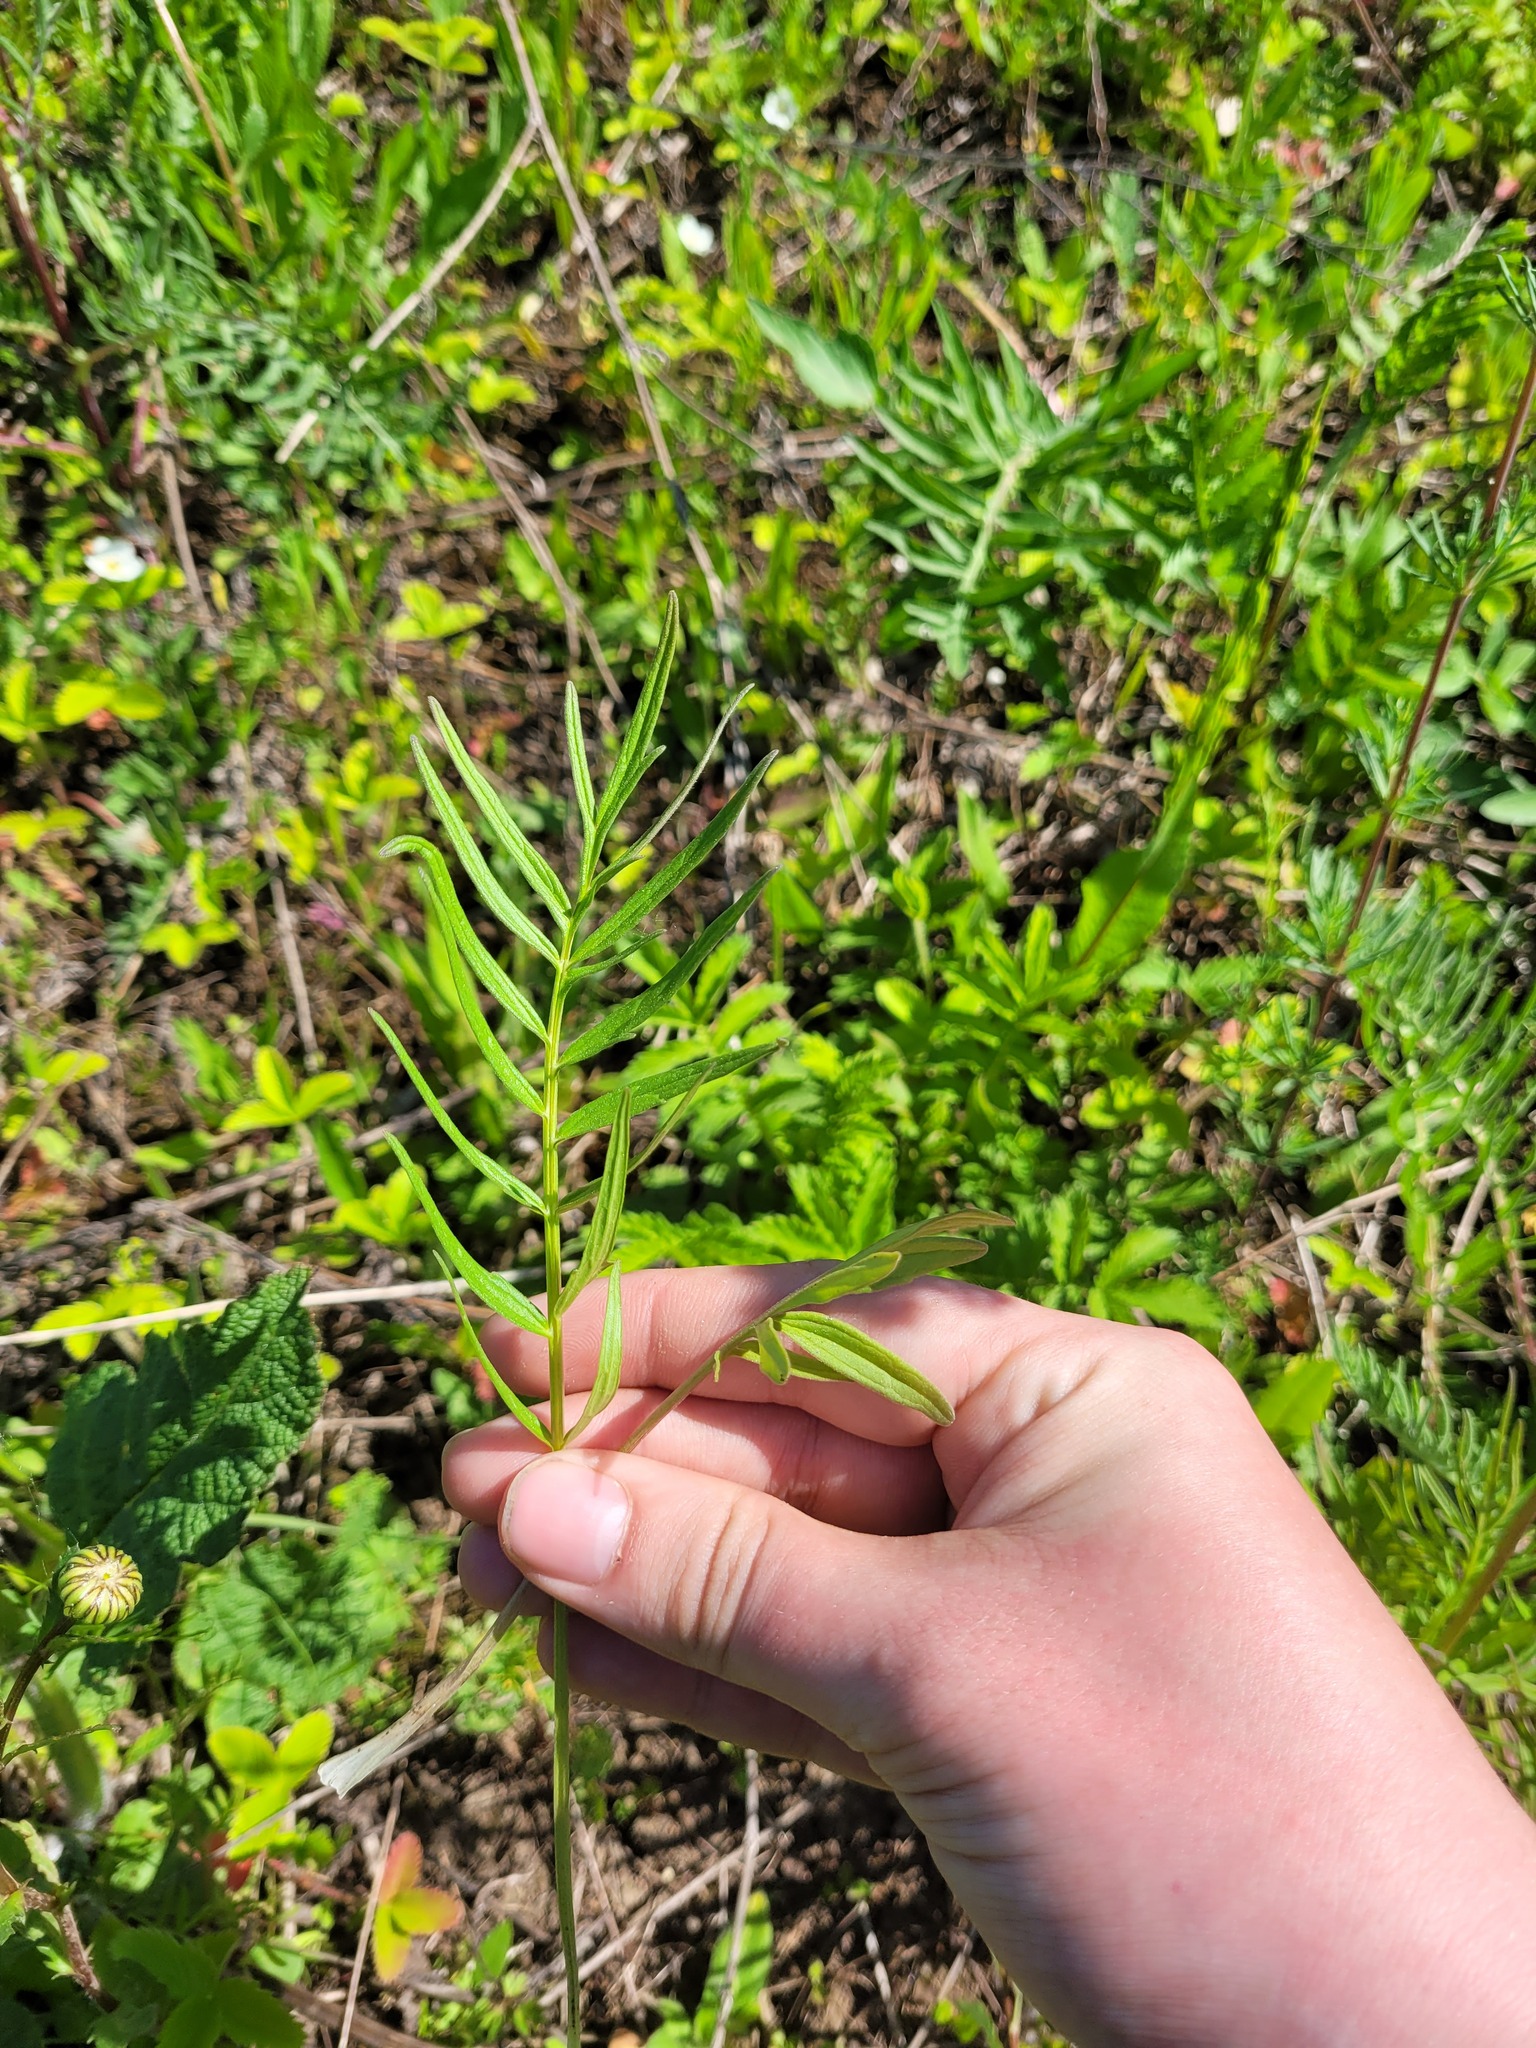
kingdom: Plantae
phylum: Tracheophyta
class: Magnoliopsida
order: Dipsacales
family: Caprifoliaceae
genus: Valeriana
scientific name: Valeriana rossica
